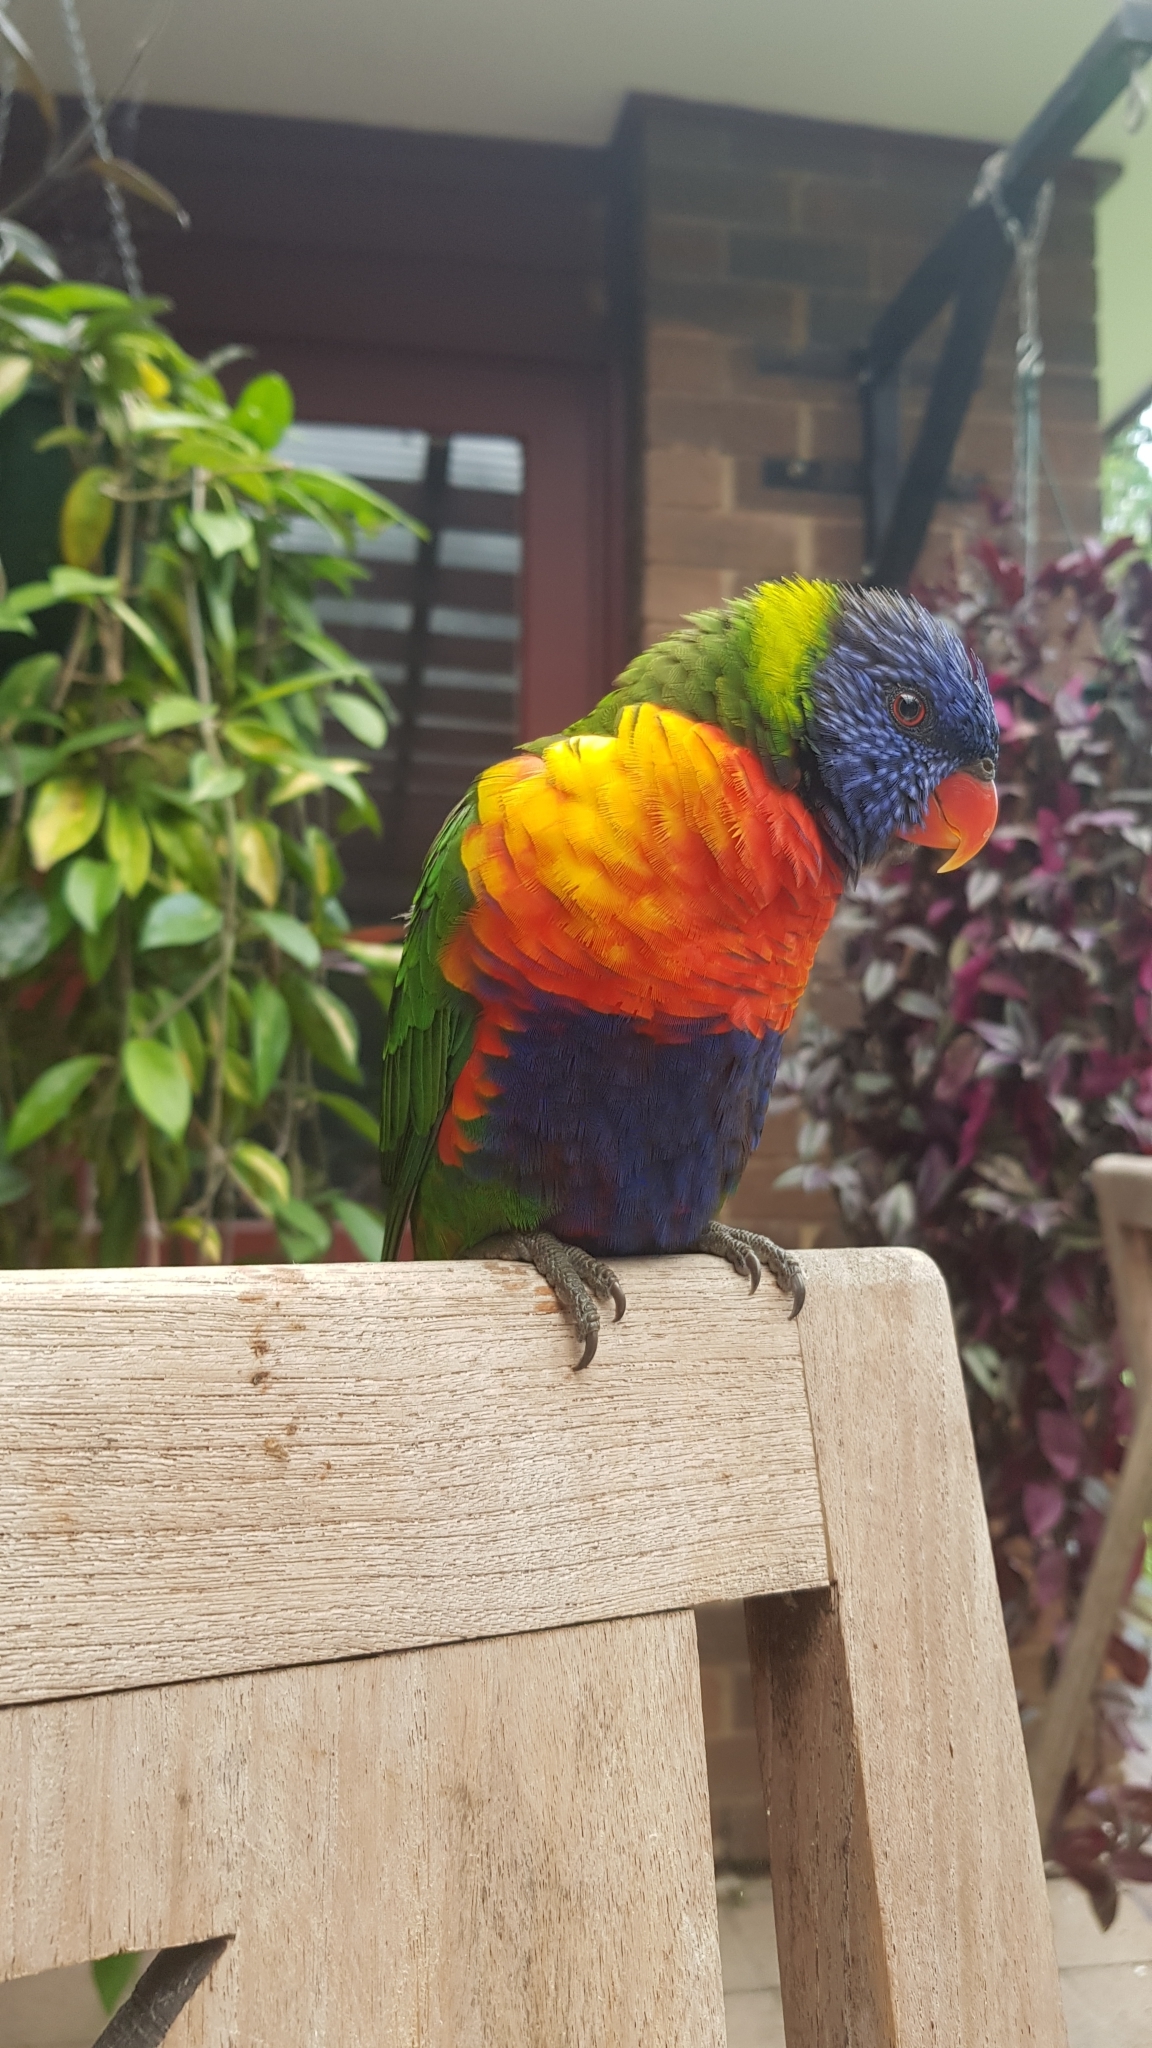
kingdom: Animalia
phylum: Chordata
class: Aves
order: Psittaciformes
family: Psittacidae
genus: Trichoglossus
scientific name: Trichoglossus haematodus
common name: Coconut lorikeet
